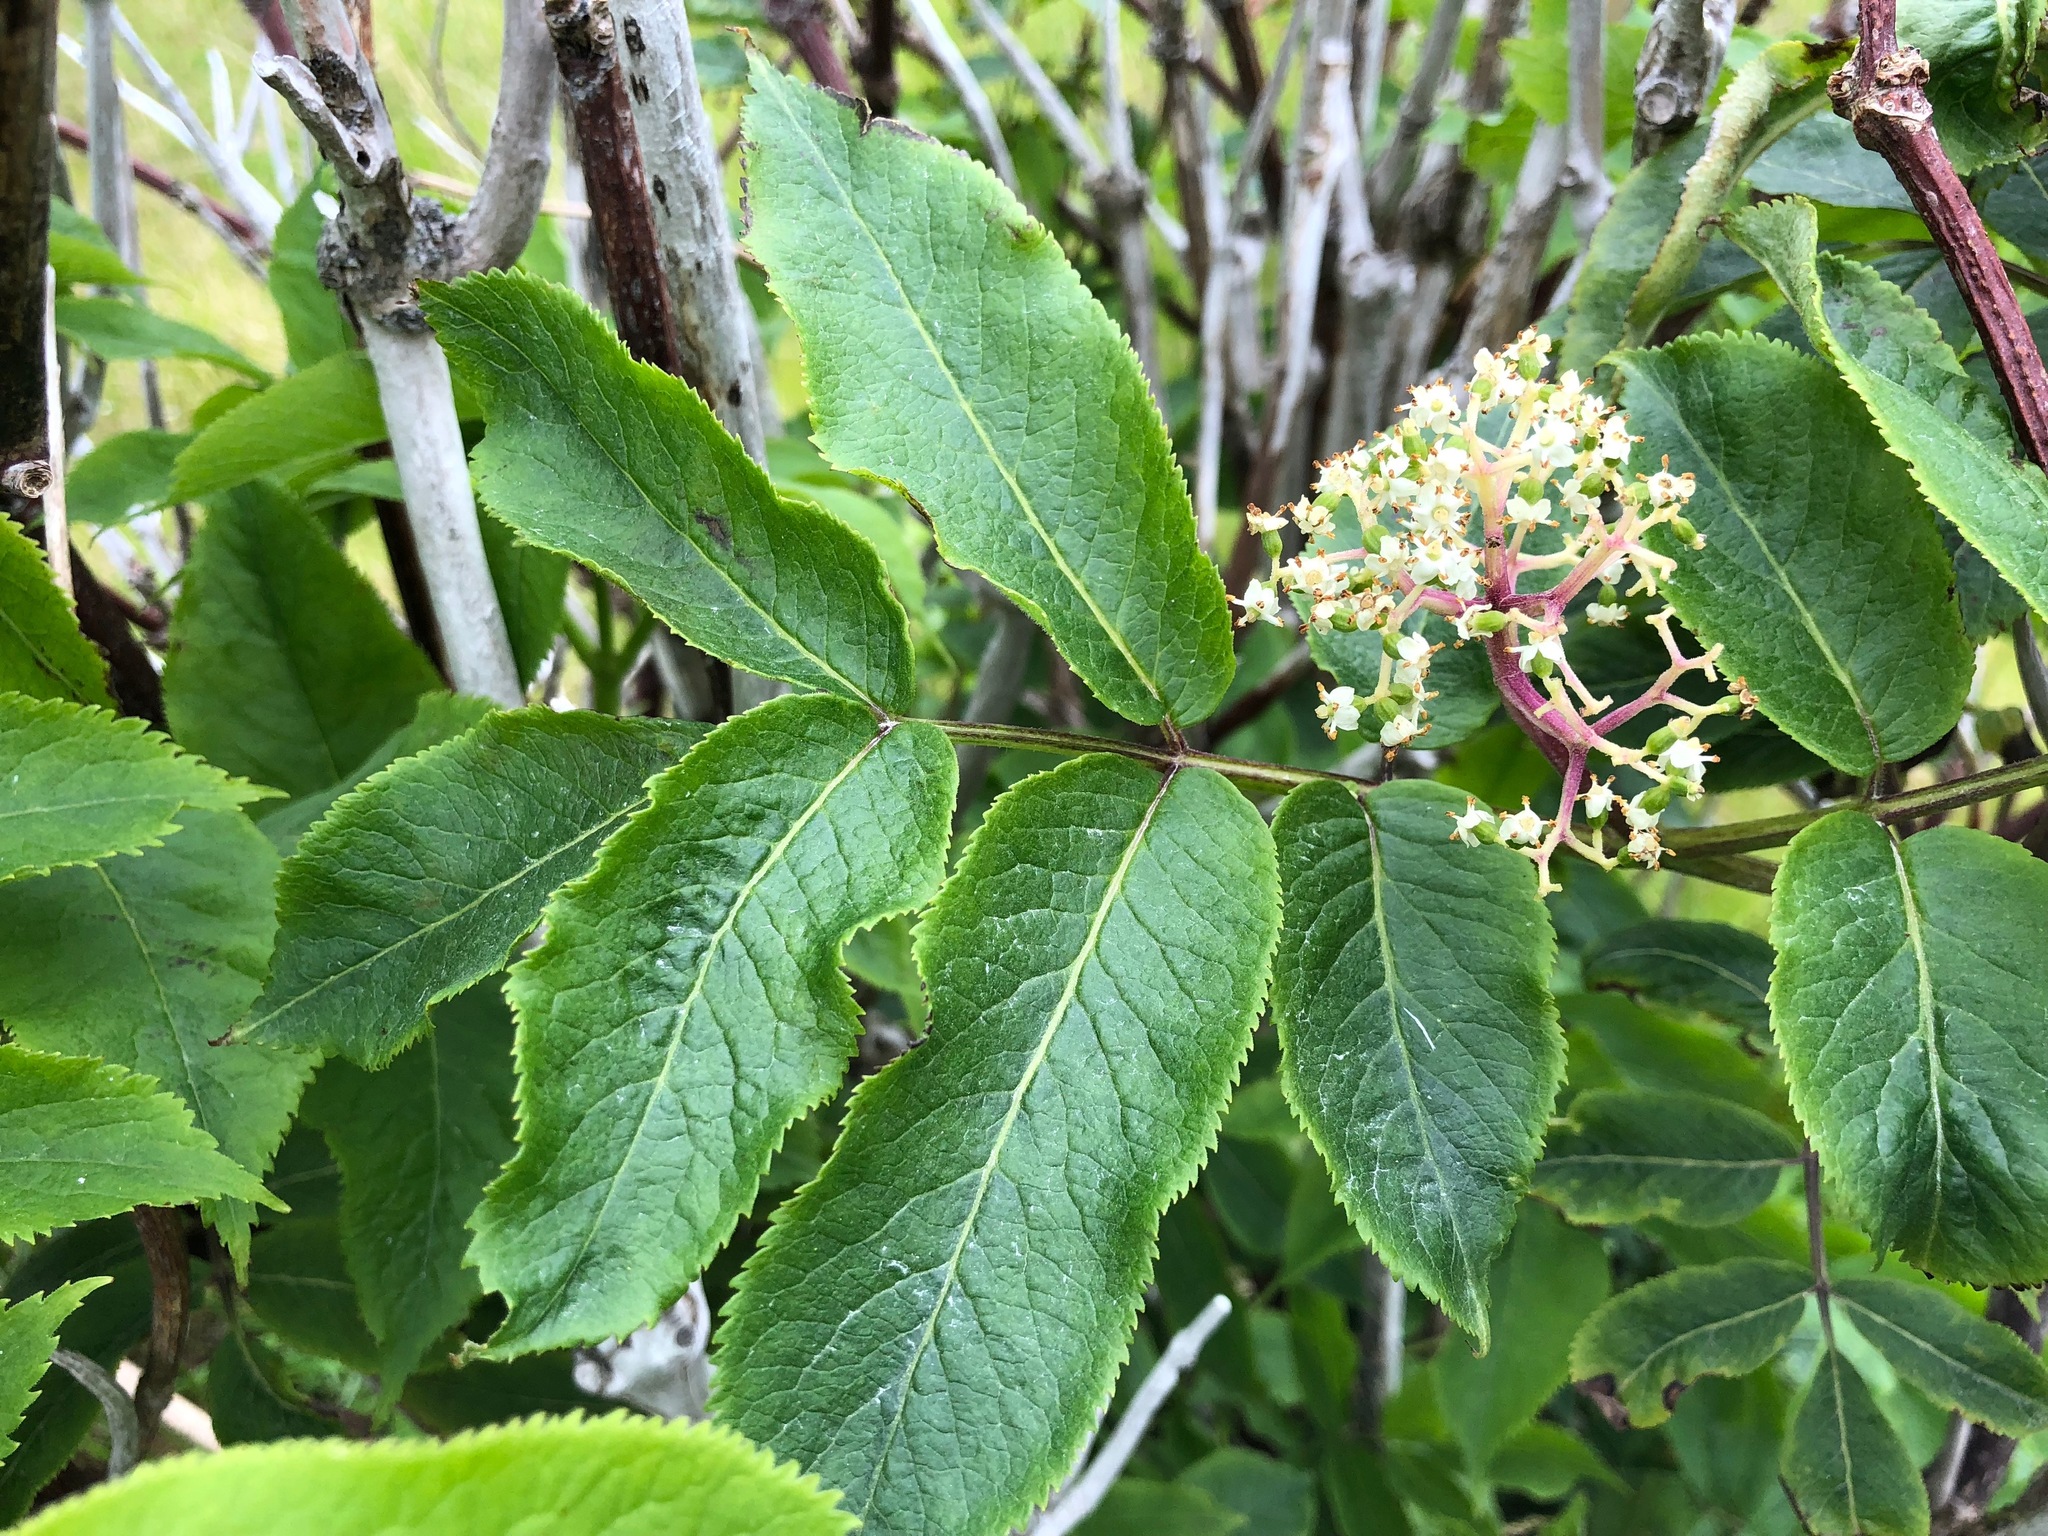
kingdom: Plantae
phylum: Tracheophyta
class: Magnoliopsida
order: Dipsacales
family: Viburnaceae
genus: Sambucus
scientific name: Sambucus racemosa
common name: Red-berried elder
